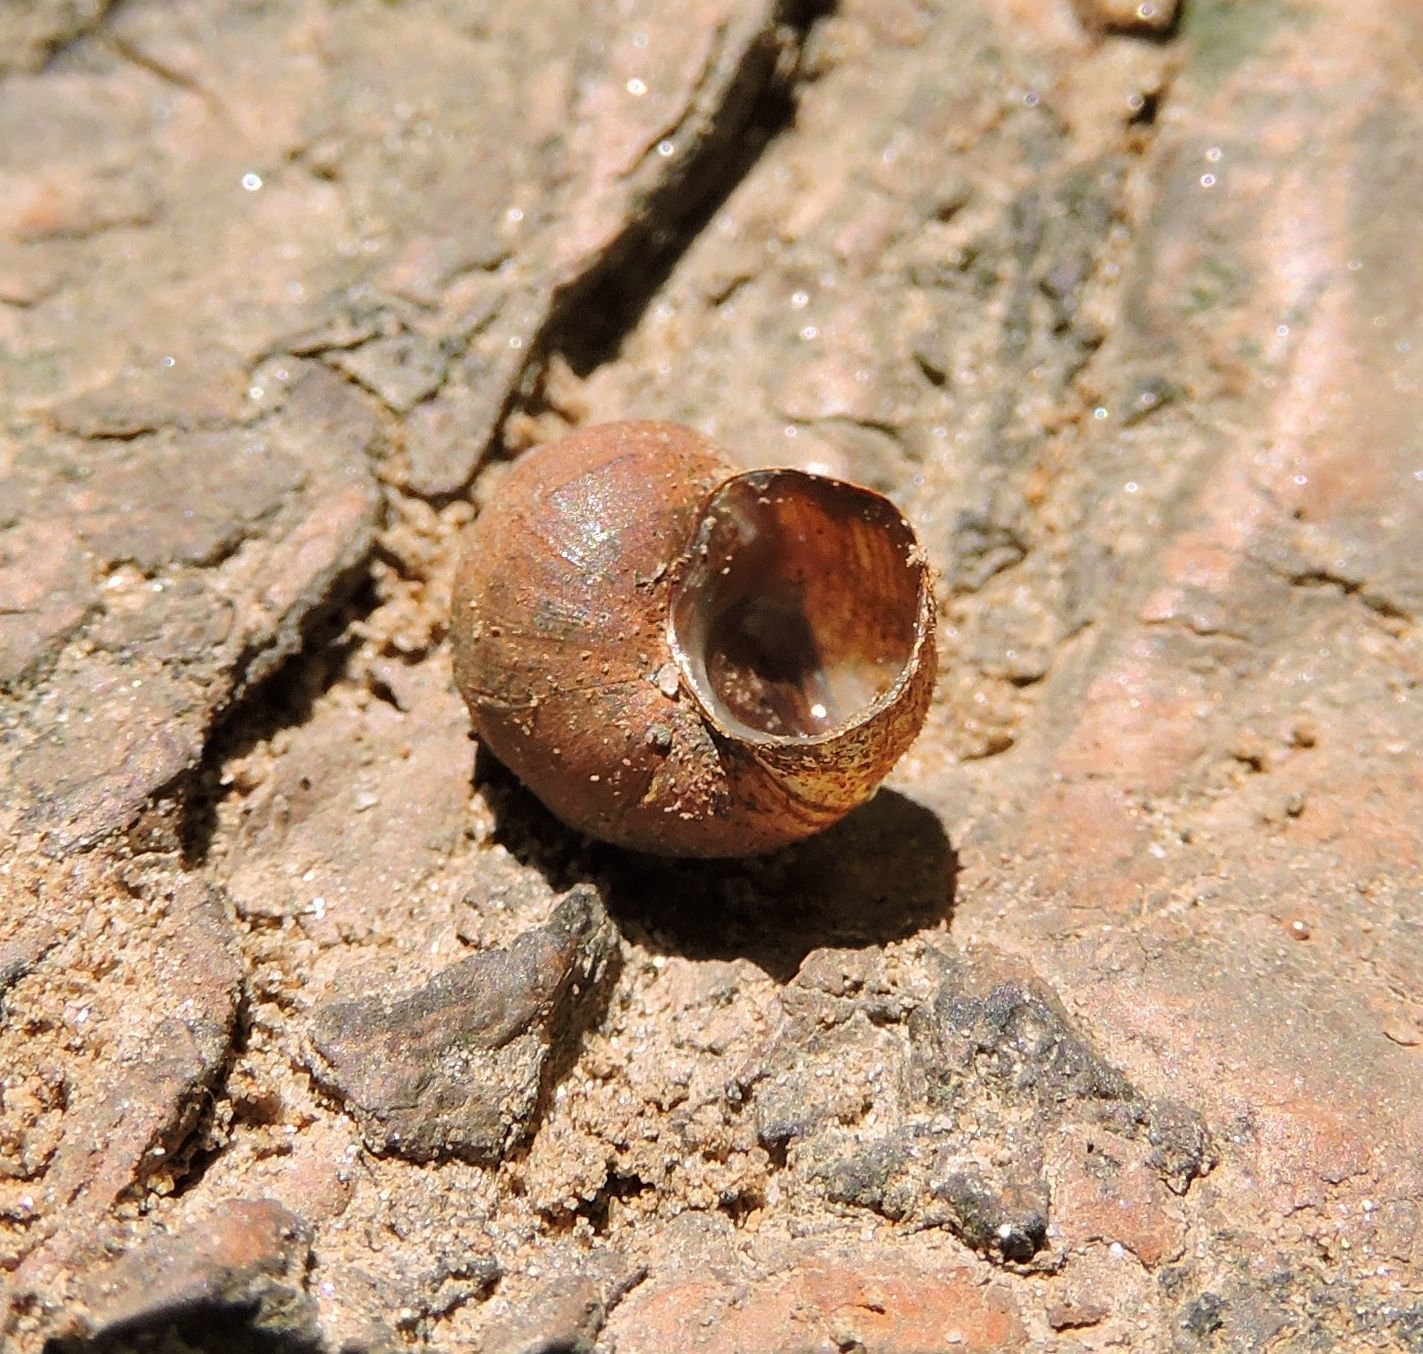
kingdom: Animalia
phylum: Mollusca
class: Gastropoda
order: Architaenioglossa
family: Viviparidae
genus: Lioplax
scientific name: Lioplax subcarinata
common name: Ridgid lioplax
